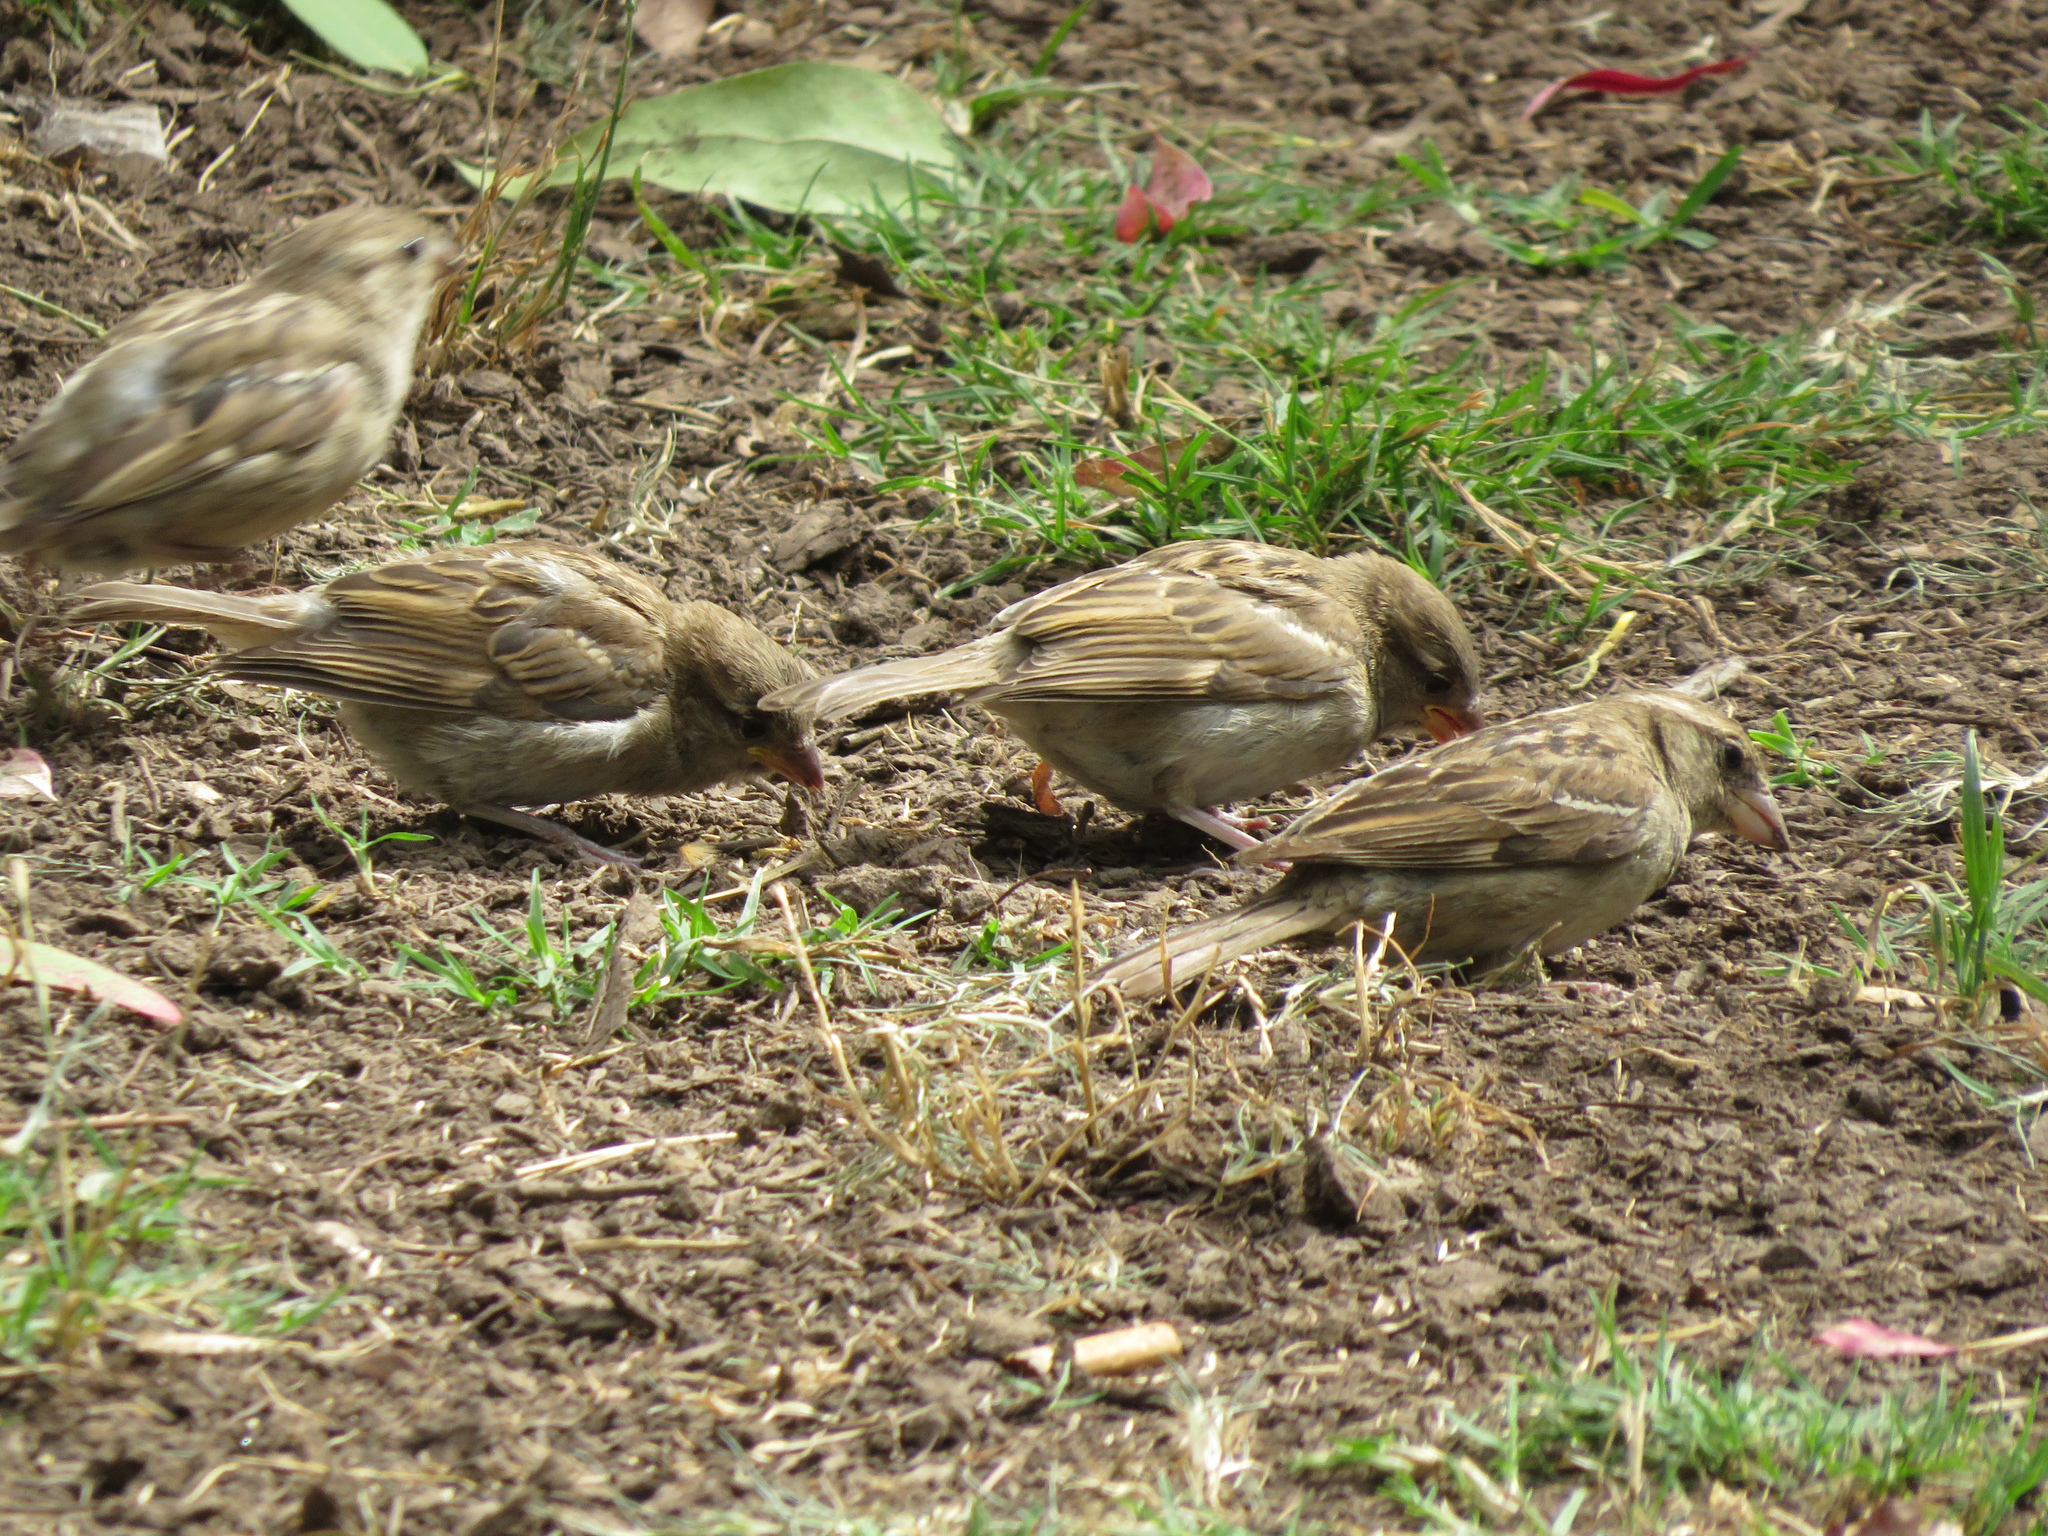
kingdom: Animalia
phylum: Chordata
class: Aves
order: Passeriformes
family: Passeridae
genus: Passer
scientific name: Passer domesticus
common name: House sparrow
